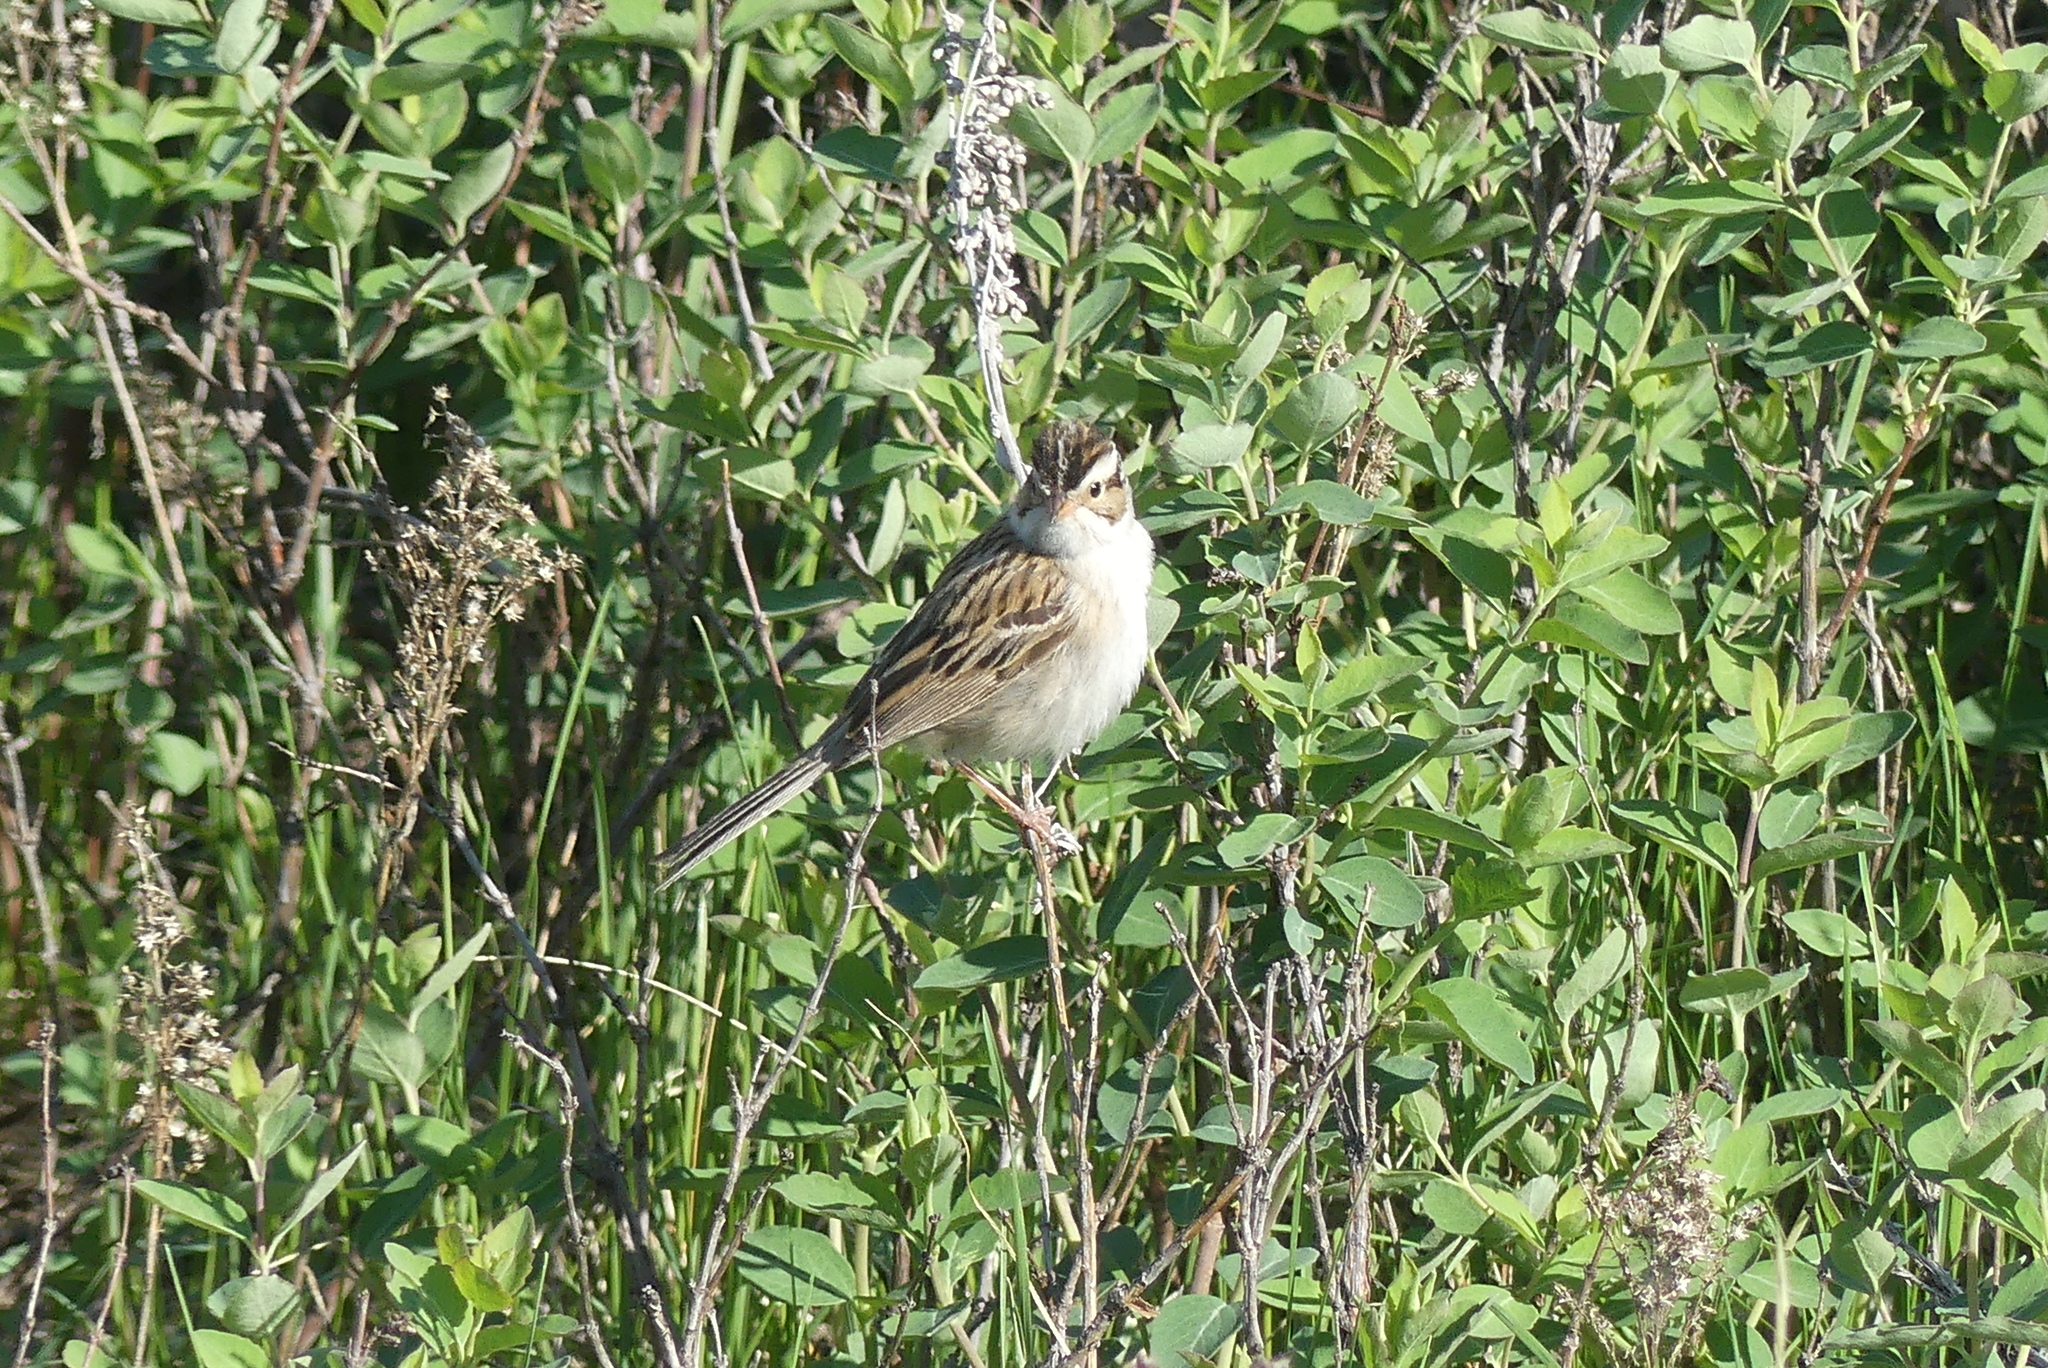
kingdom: Animalia
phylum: Chordata
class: Aves
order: Passeriformes
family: Passerellidae
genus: Spizella
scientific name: Spizella pallida
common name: Clay-colored sparrow
